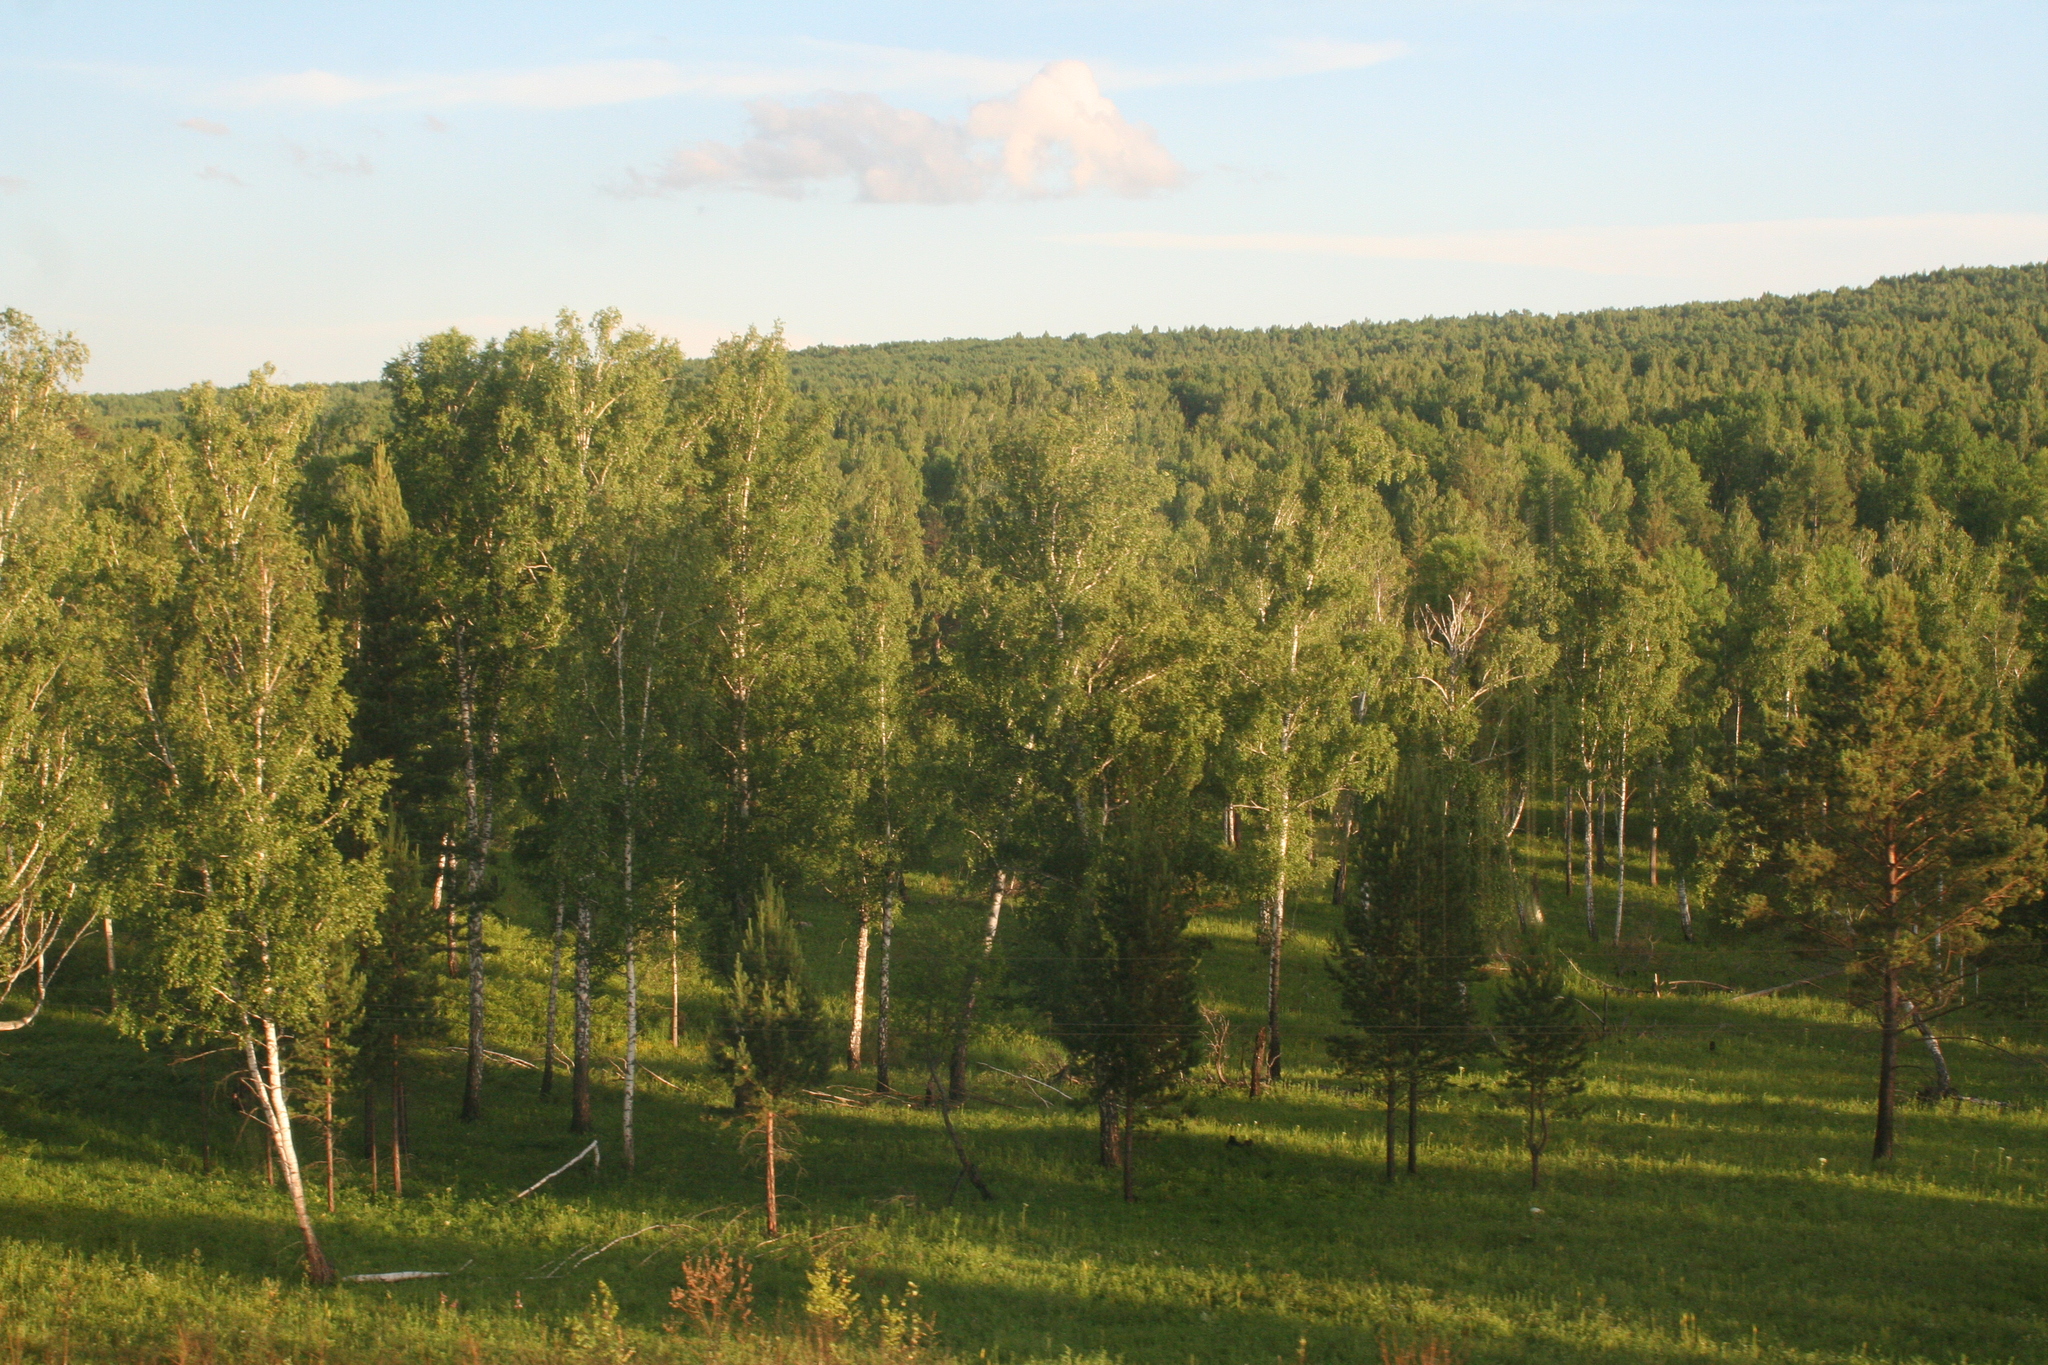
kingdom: Plantae
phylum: Tracheophyta
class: Magnoliopsida
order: Fagales
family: Betulaceae
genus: Betula
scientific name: Betula pendula
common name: Silver birch
